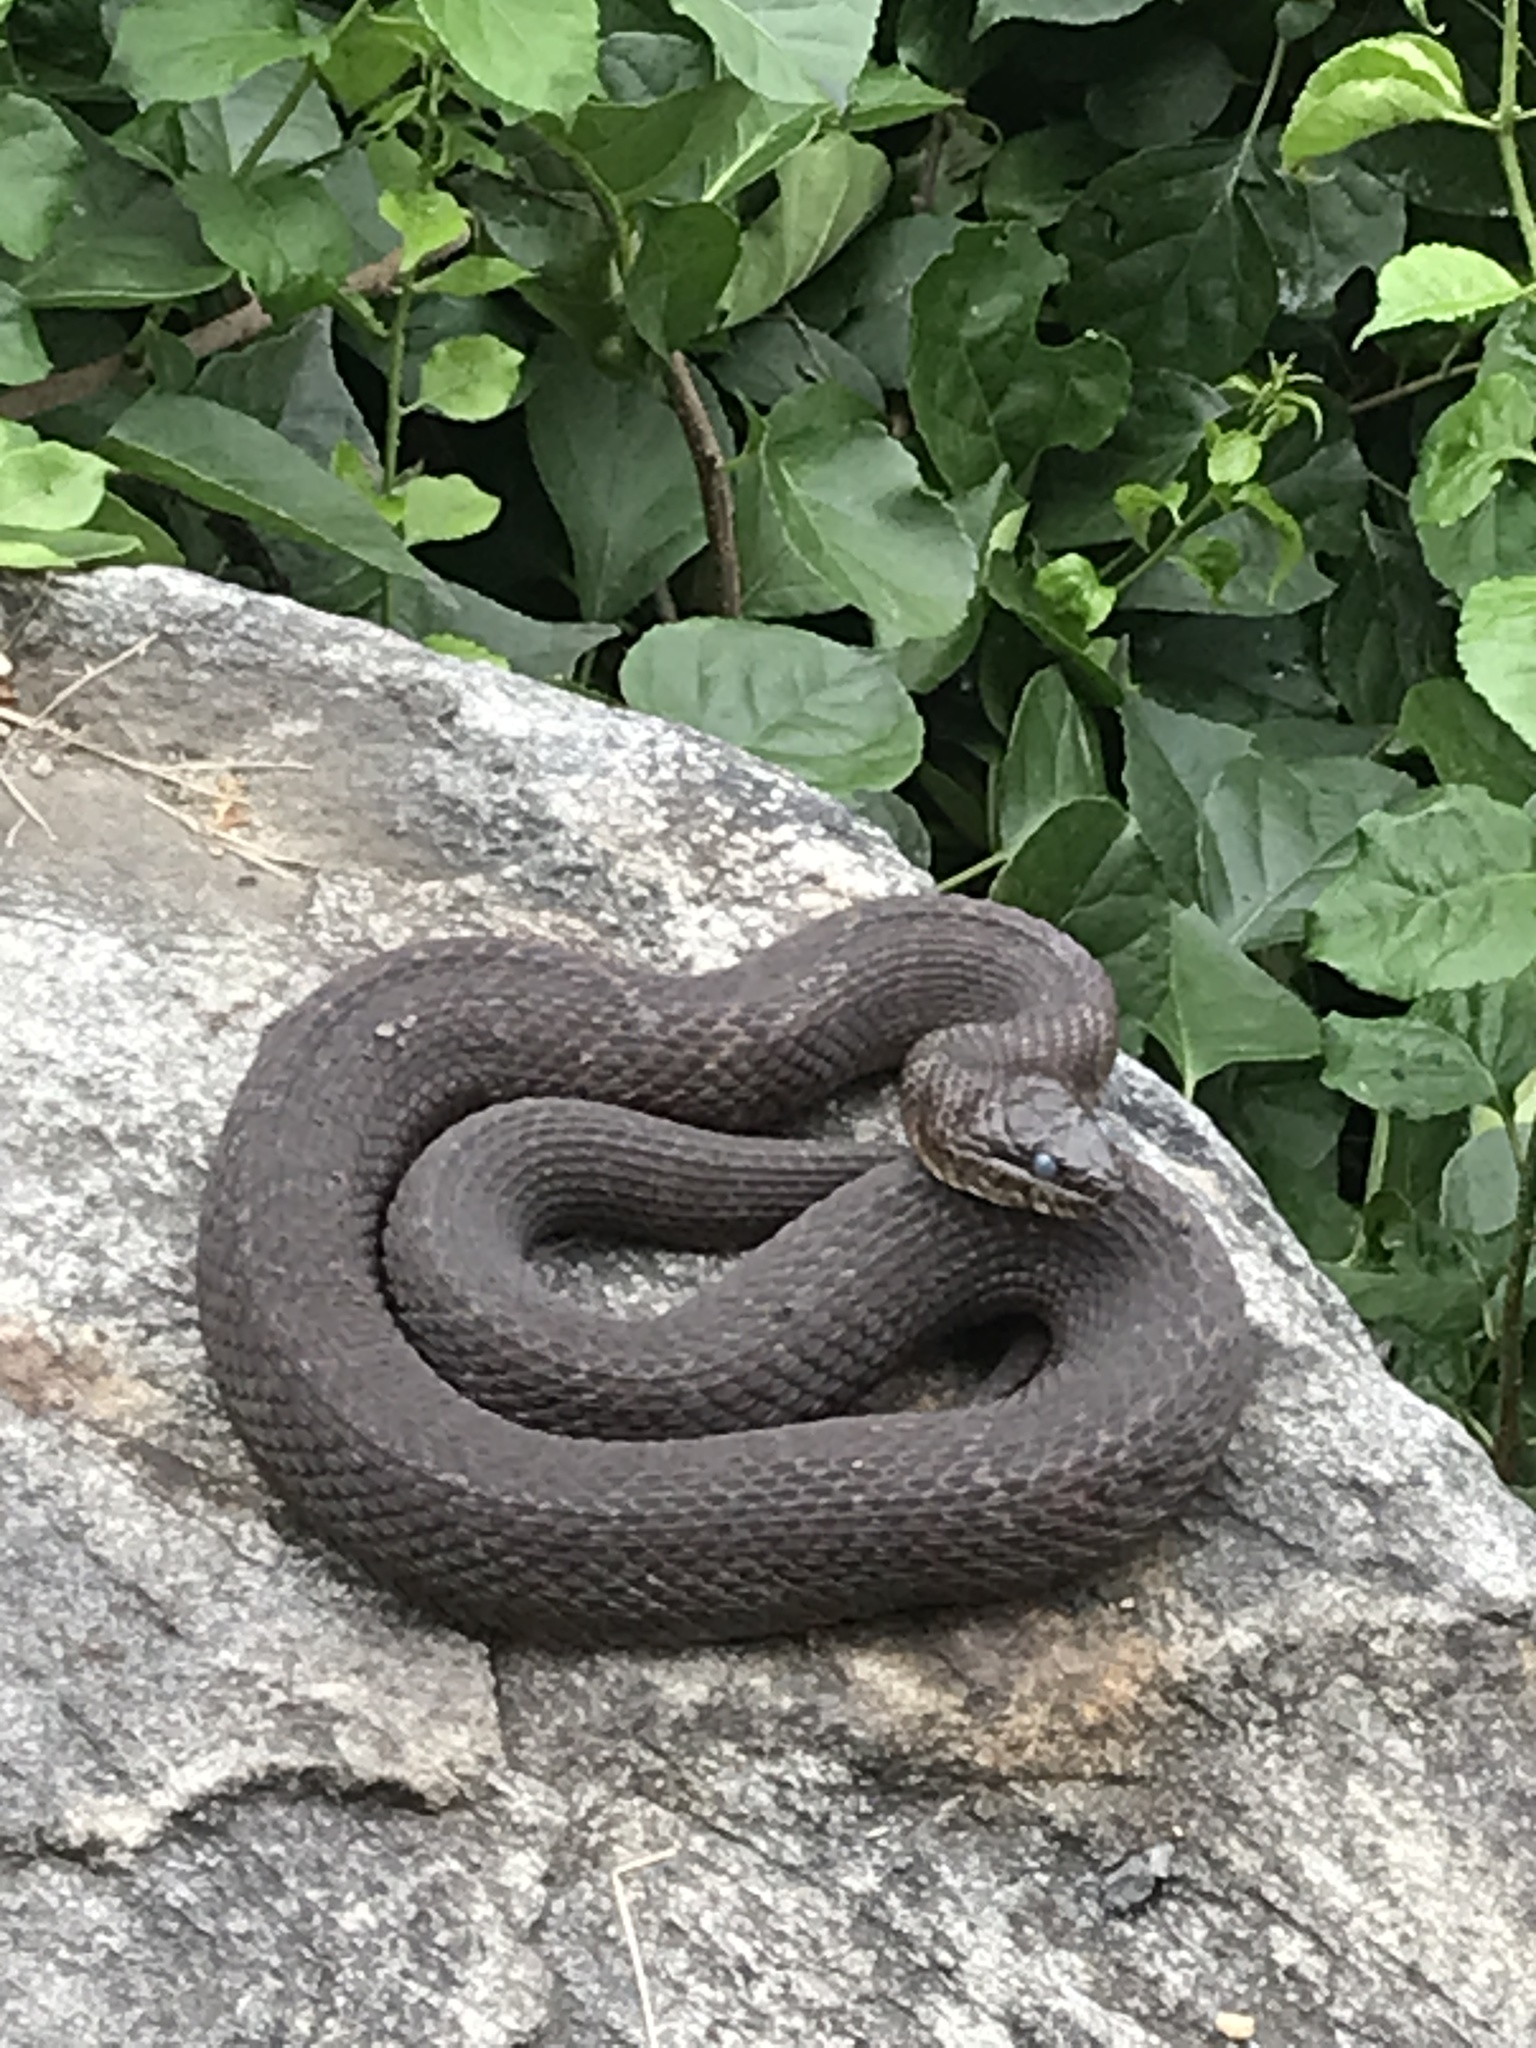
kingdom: Animalia
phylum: Chordata
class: Squamata
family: Colubridae
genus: Nerodia
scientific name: Nerodia sipedon
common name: Northern water snake
